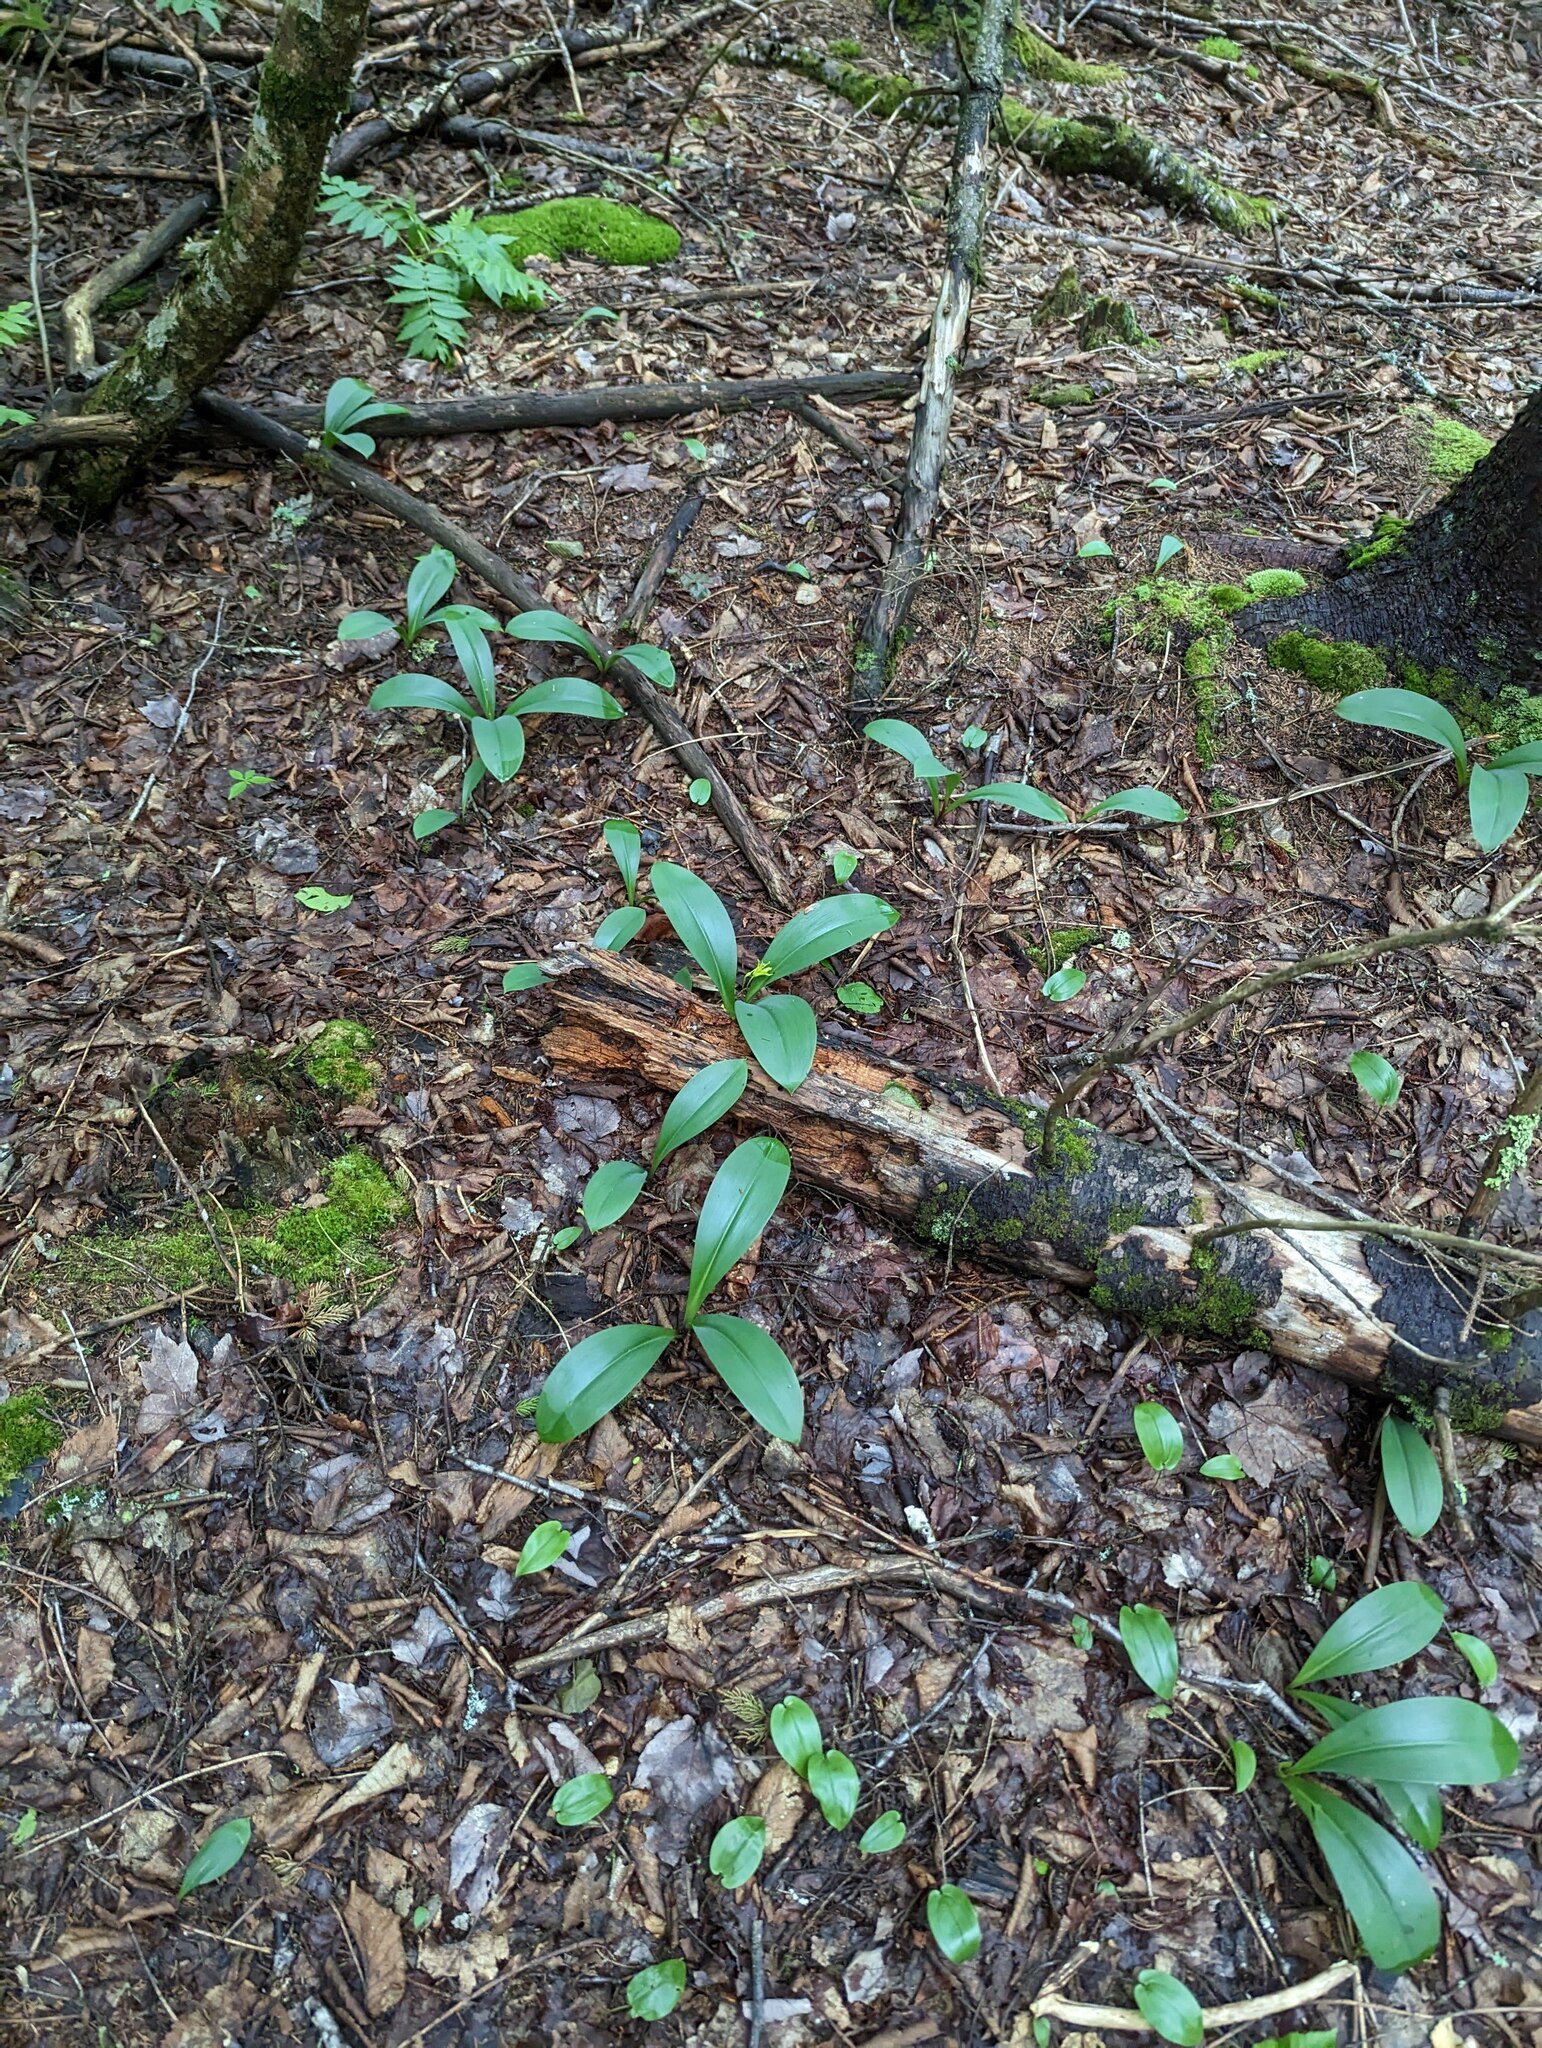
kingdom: Plantae
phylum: Tracheophyta
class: Liliopsida
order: Liliales
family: Liliaceae
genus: Clintonia
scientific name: Clintonia borealis
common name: Yellow clintonia
